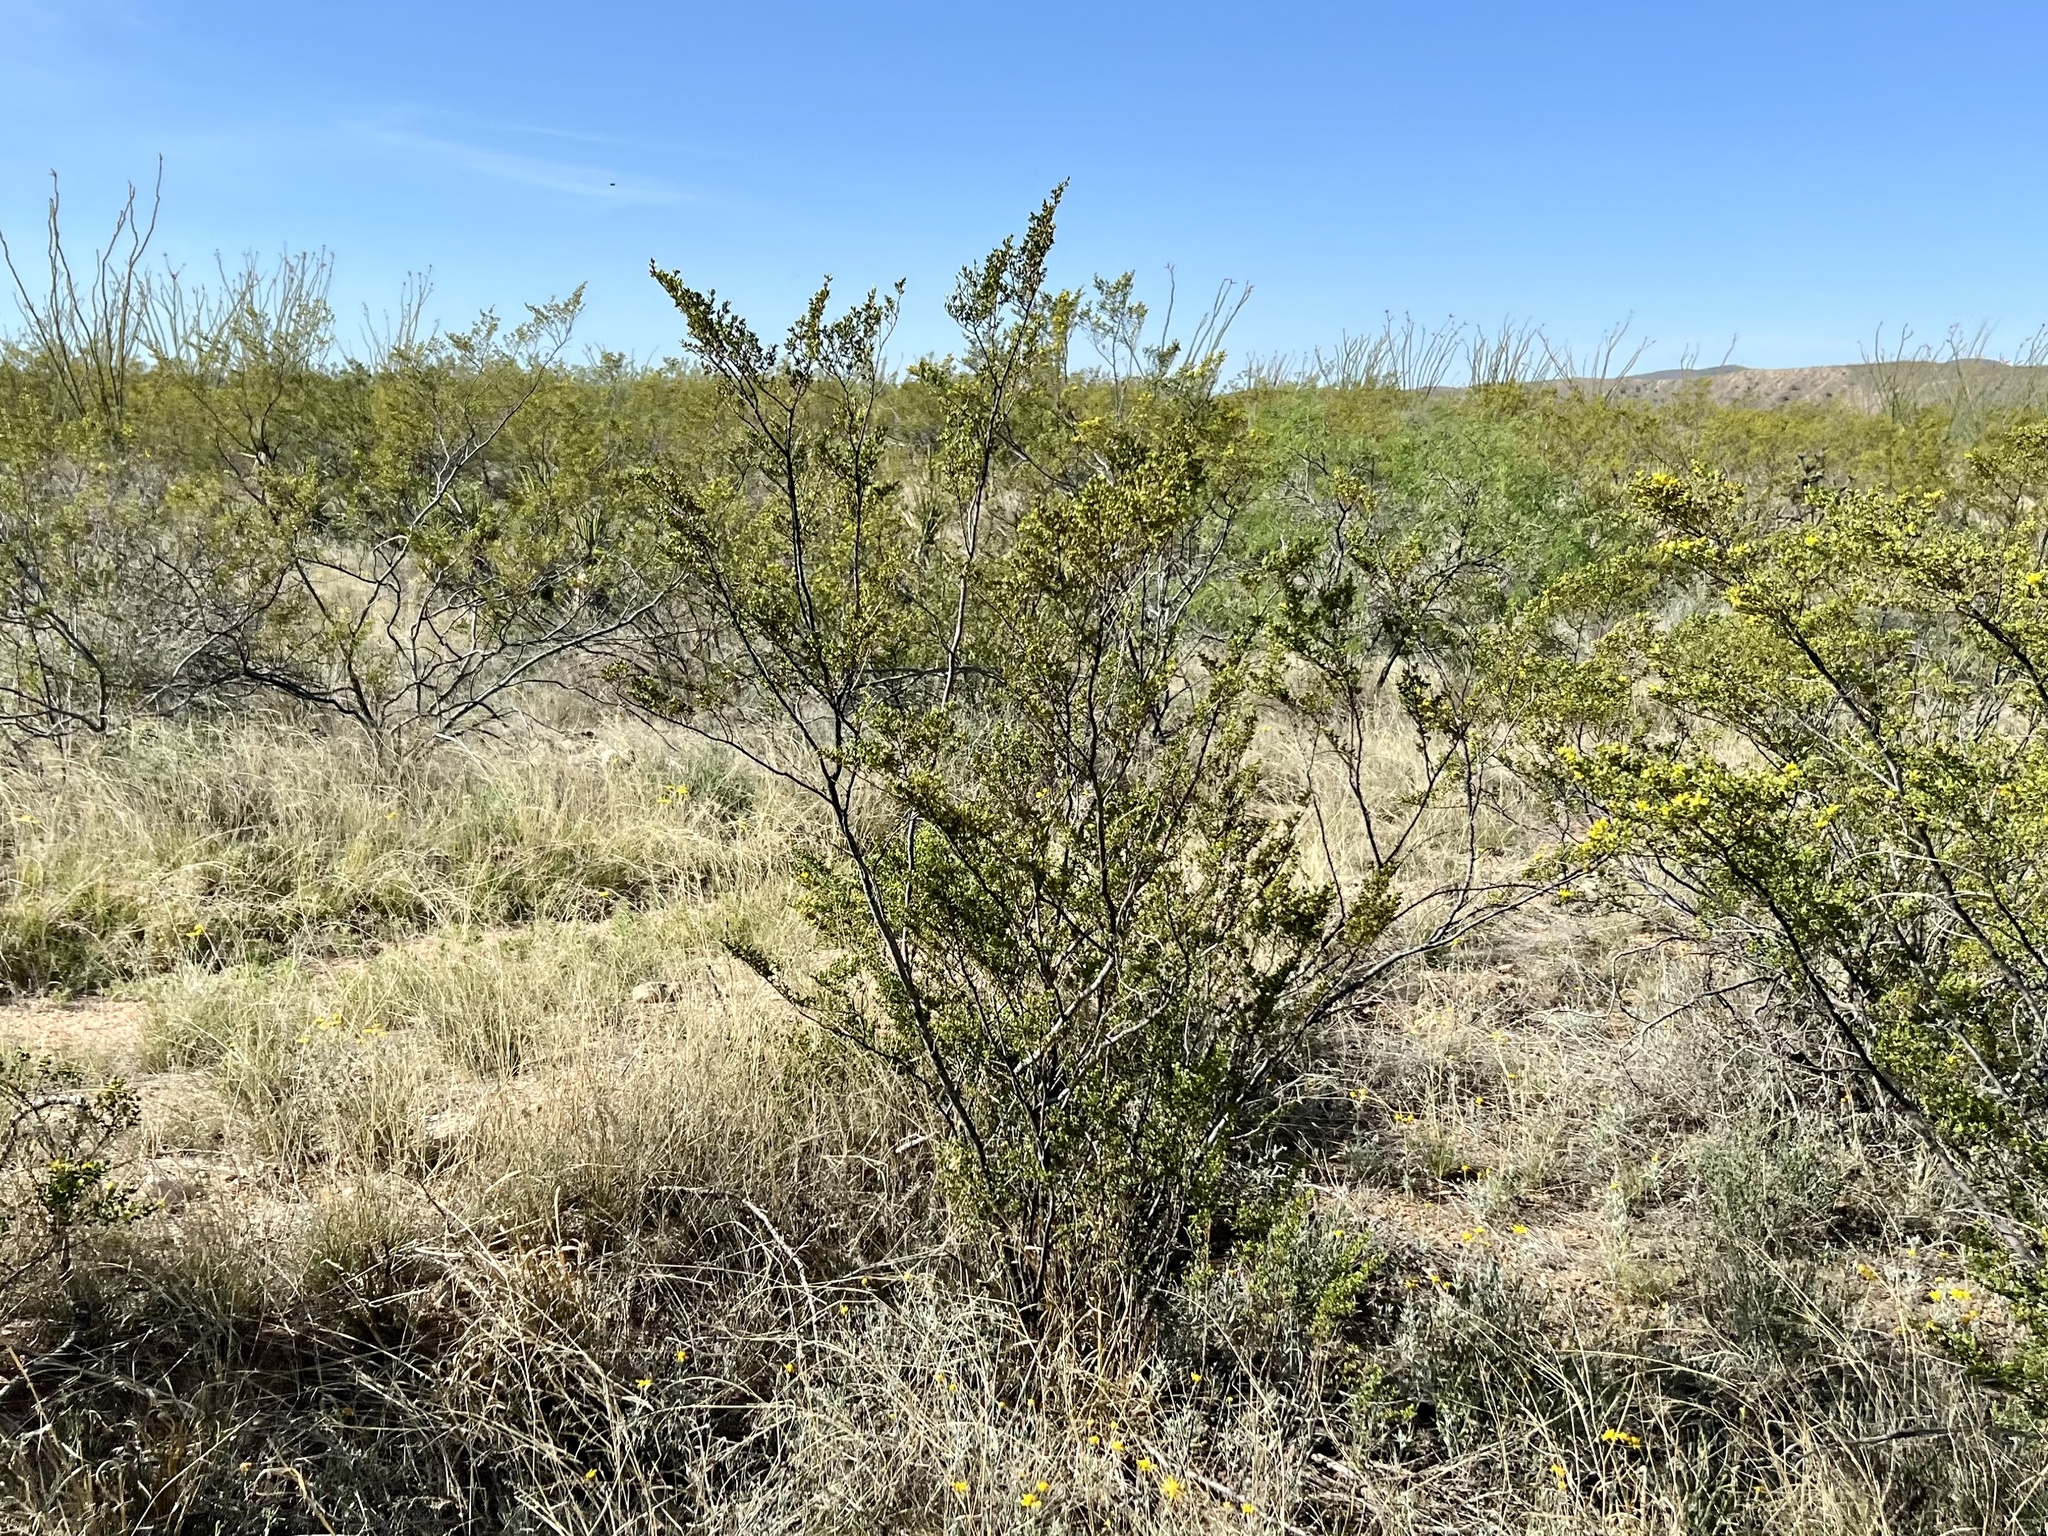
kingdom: Plantae
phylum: Tracheophyta
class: Magnoliopsida
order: Zygophyllales
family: Zygophyllaceae
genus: Larrea
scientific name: Larrea tridentata
